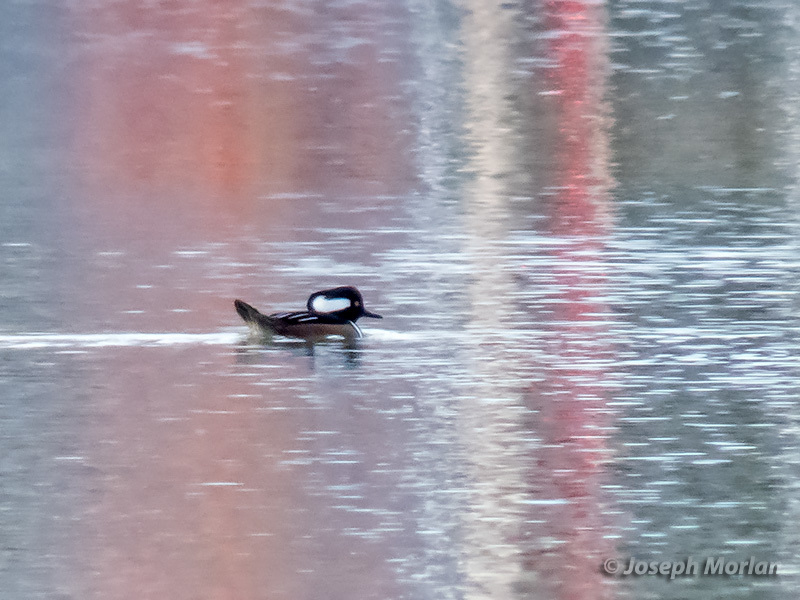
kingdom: Animalia
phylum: Chordata
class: Aves
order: Anseriformes
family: Anatidae
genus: Lophodytes
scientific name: Lophodytes cucullatus
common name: Hooded merganser
